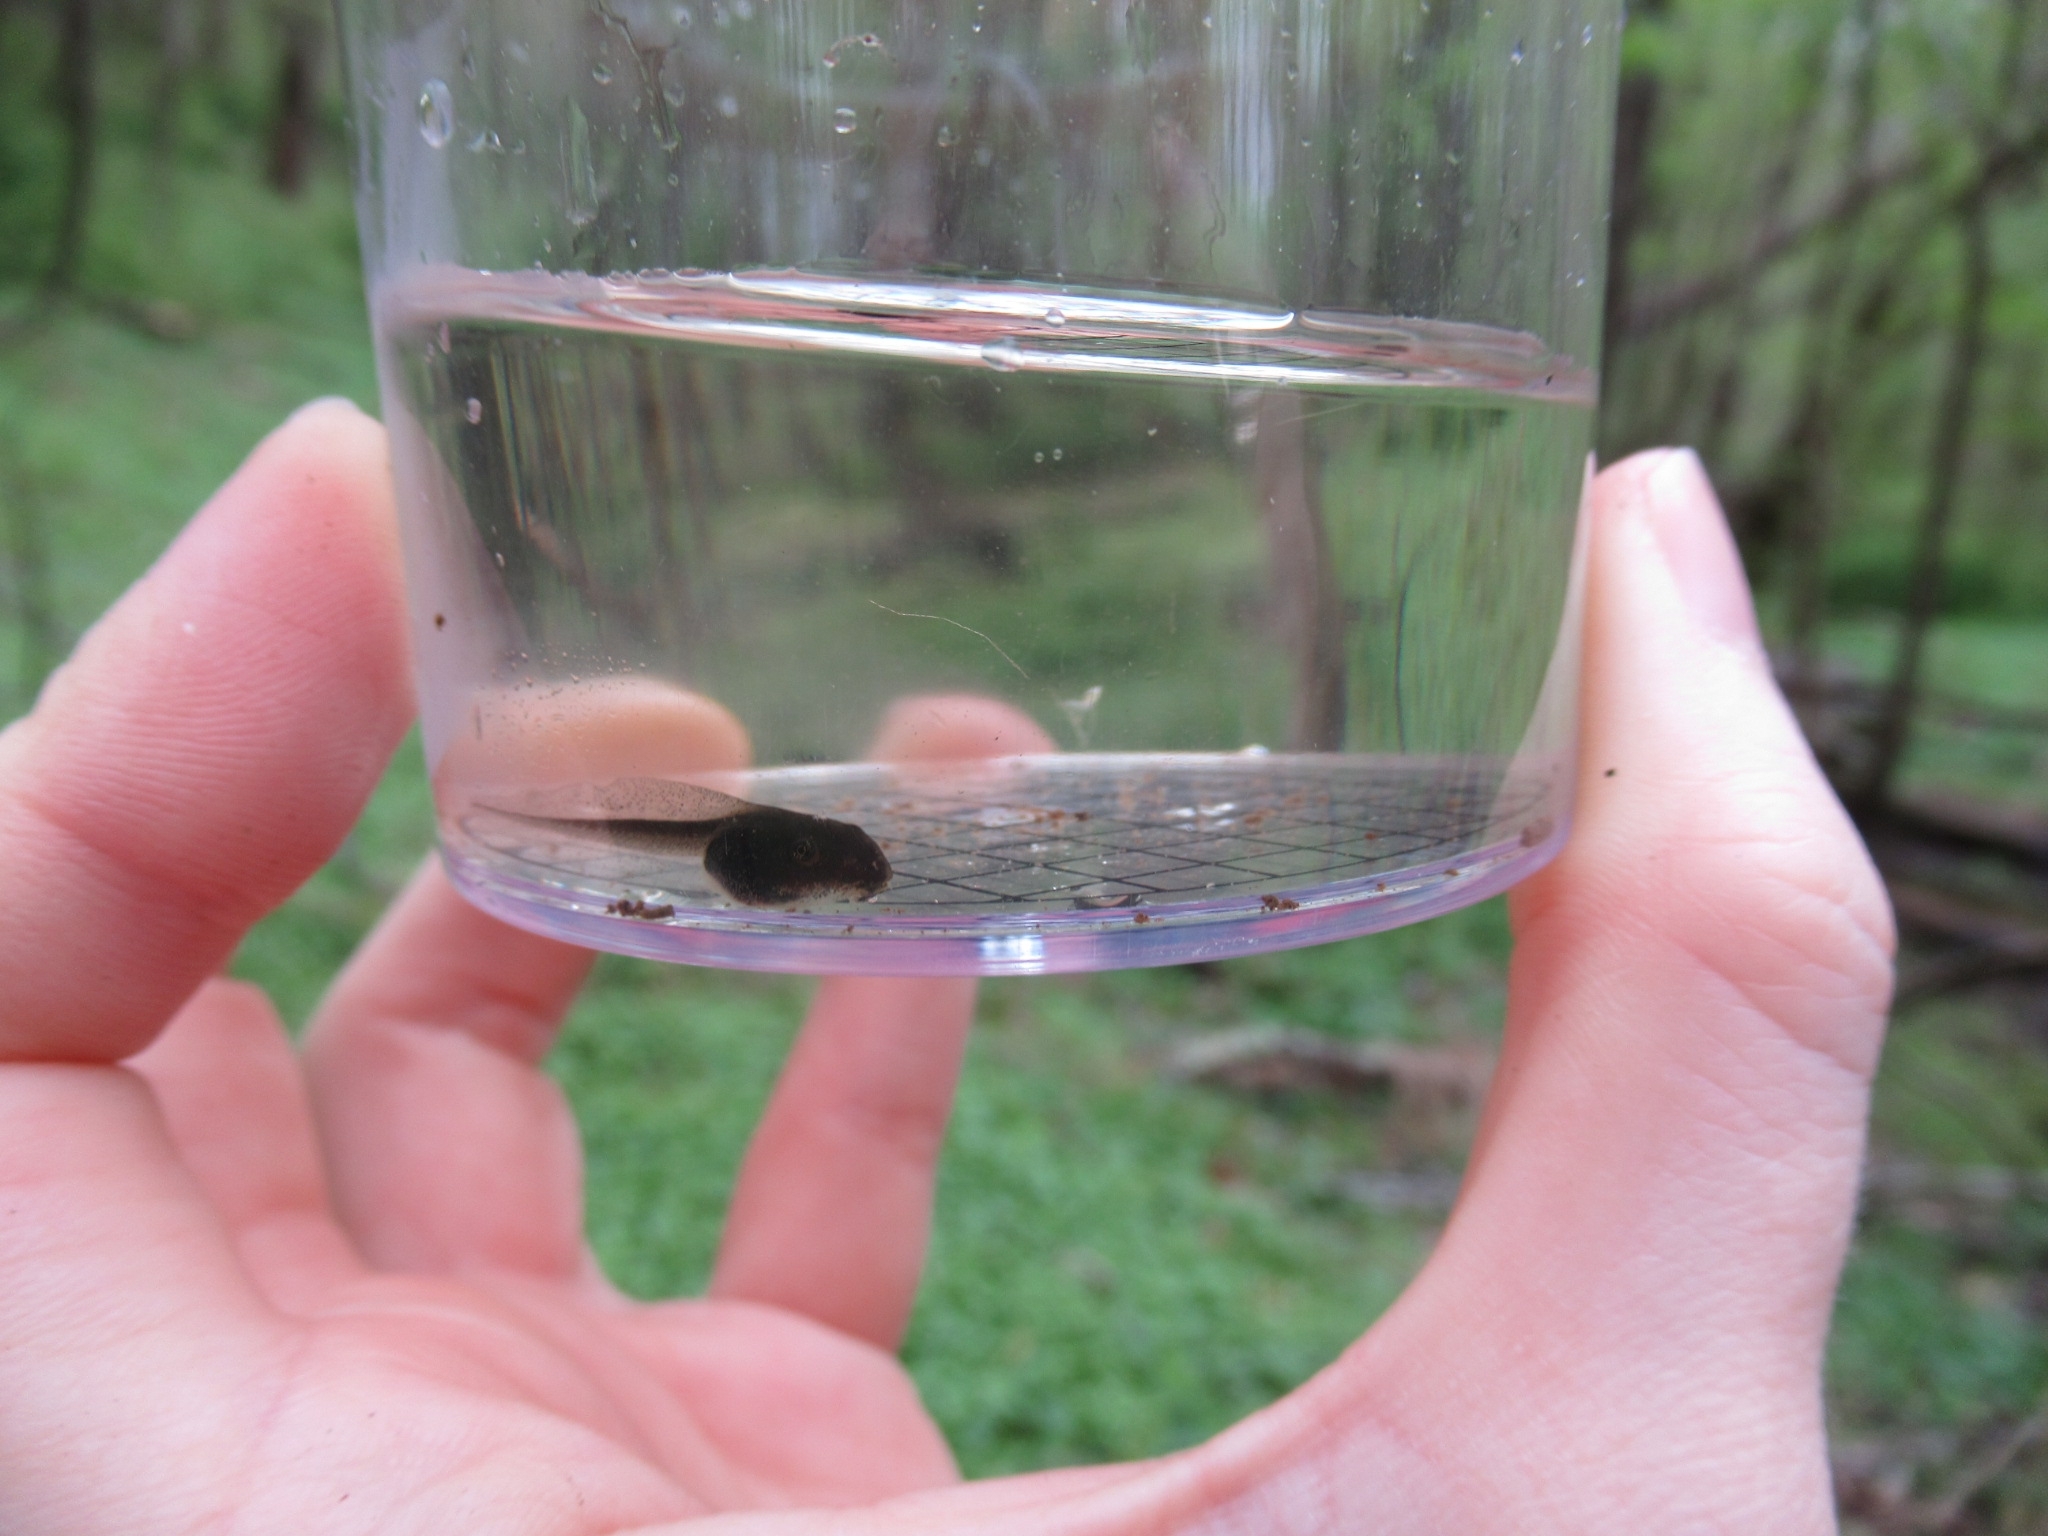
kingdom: Animalia
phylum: Chordata
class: Amphibia
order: Anura
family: Ranidae
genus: Lithobates
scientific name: Lithobates sylvaticus
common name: Wood frog
